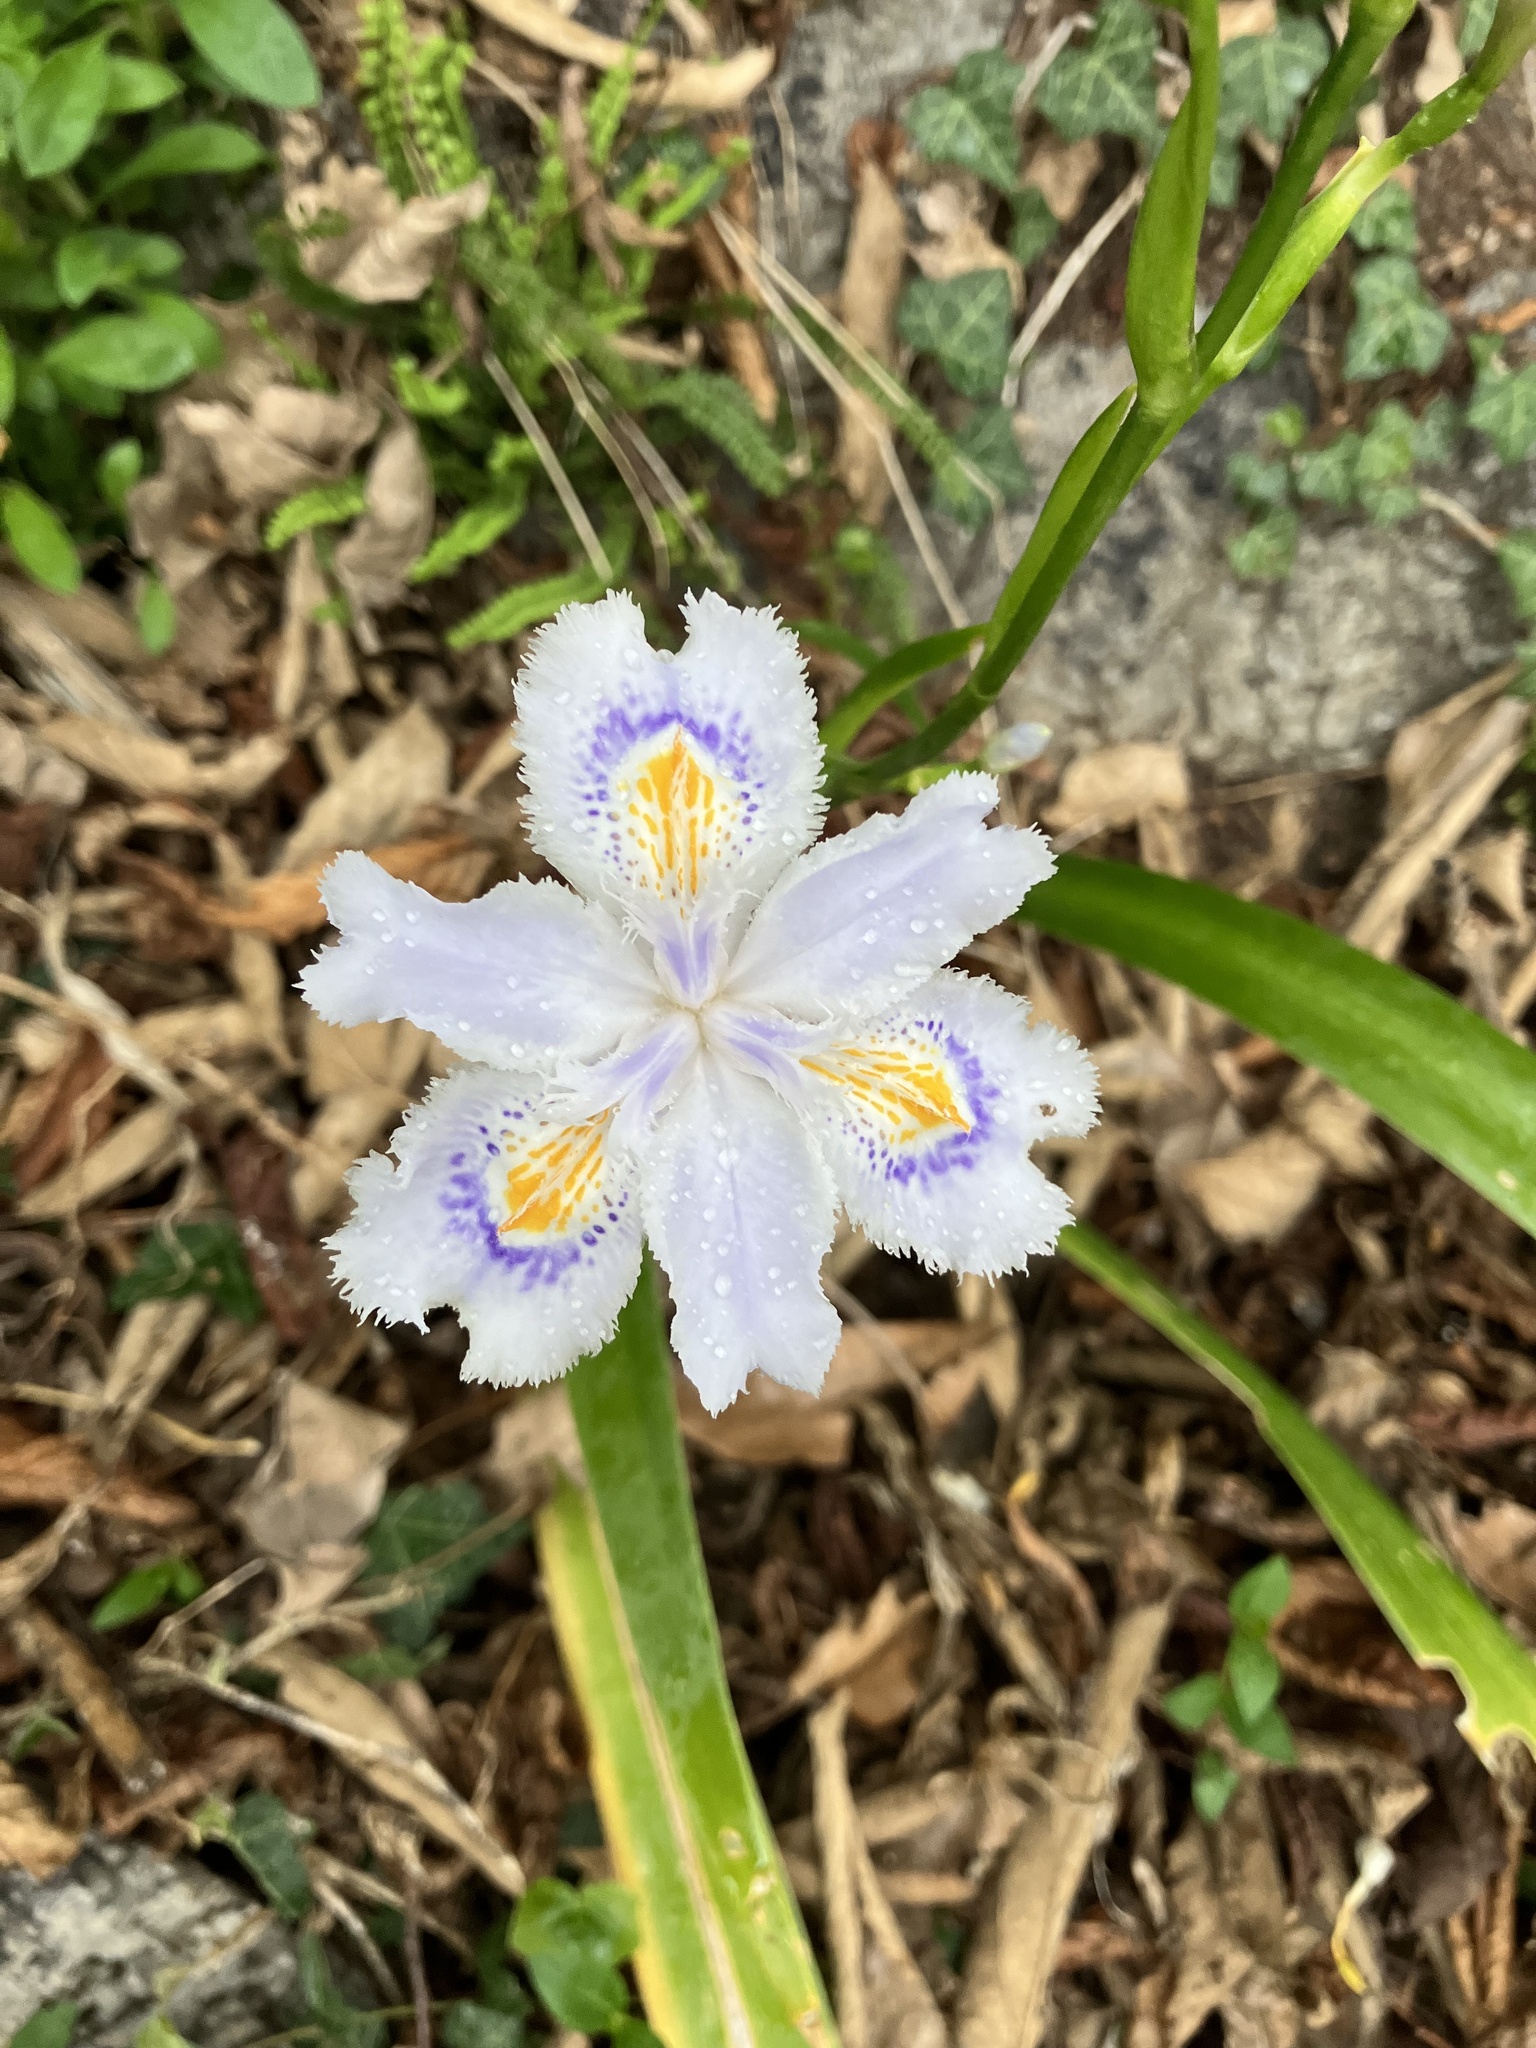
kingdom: Plantae
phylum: Tracheophyta
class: Liliopsida
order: Asparagales
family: Iridaceae
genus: Iris
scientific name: Iris japonica
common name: Butterfly-flower
